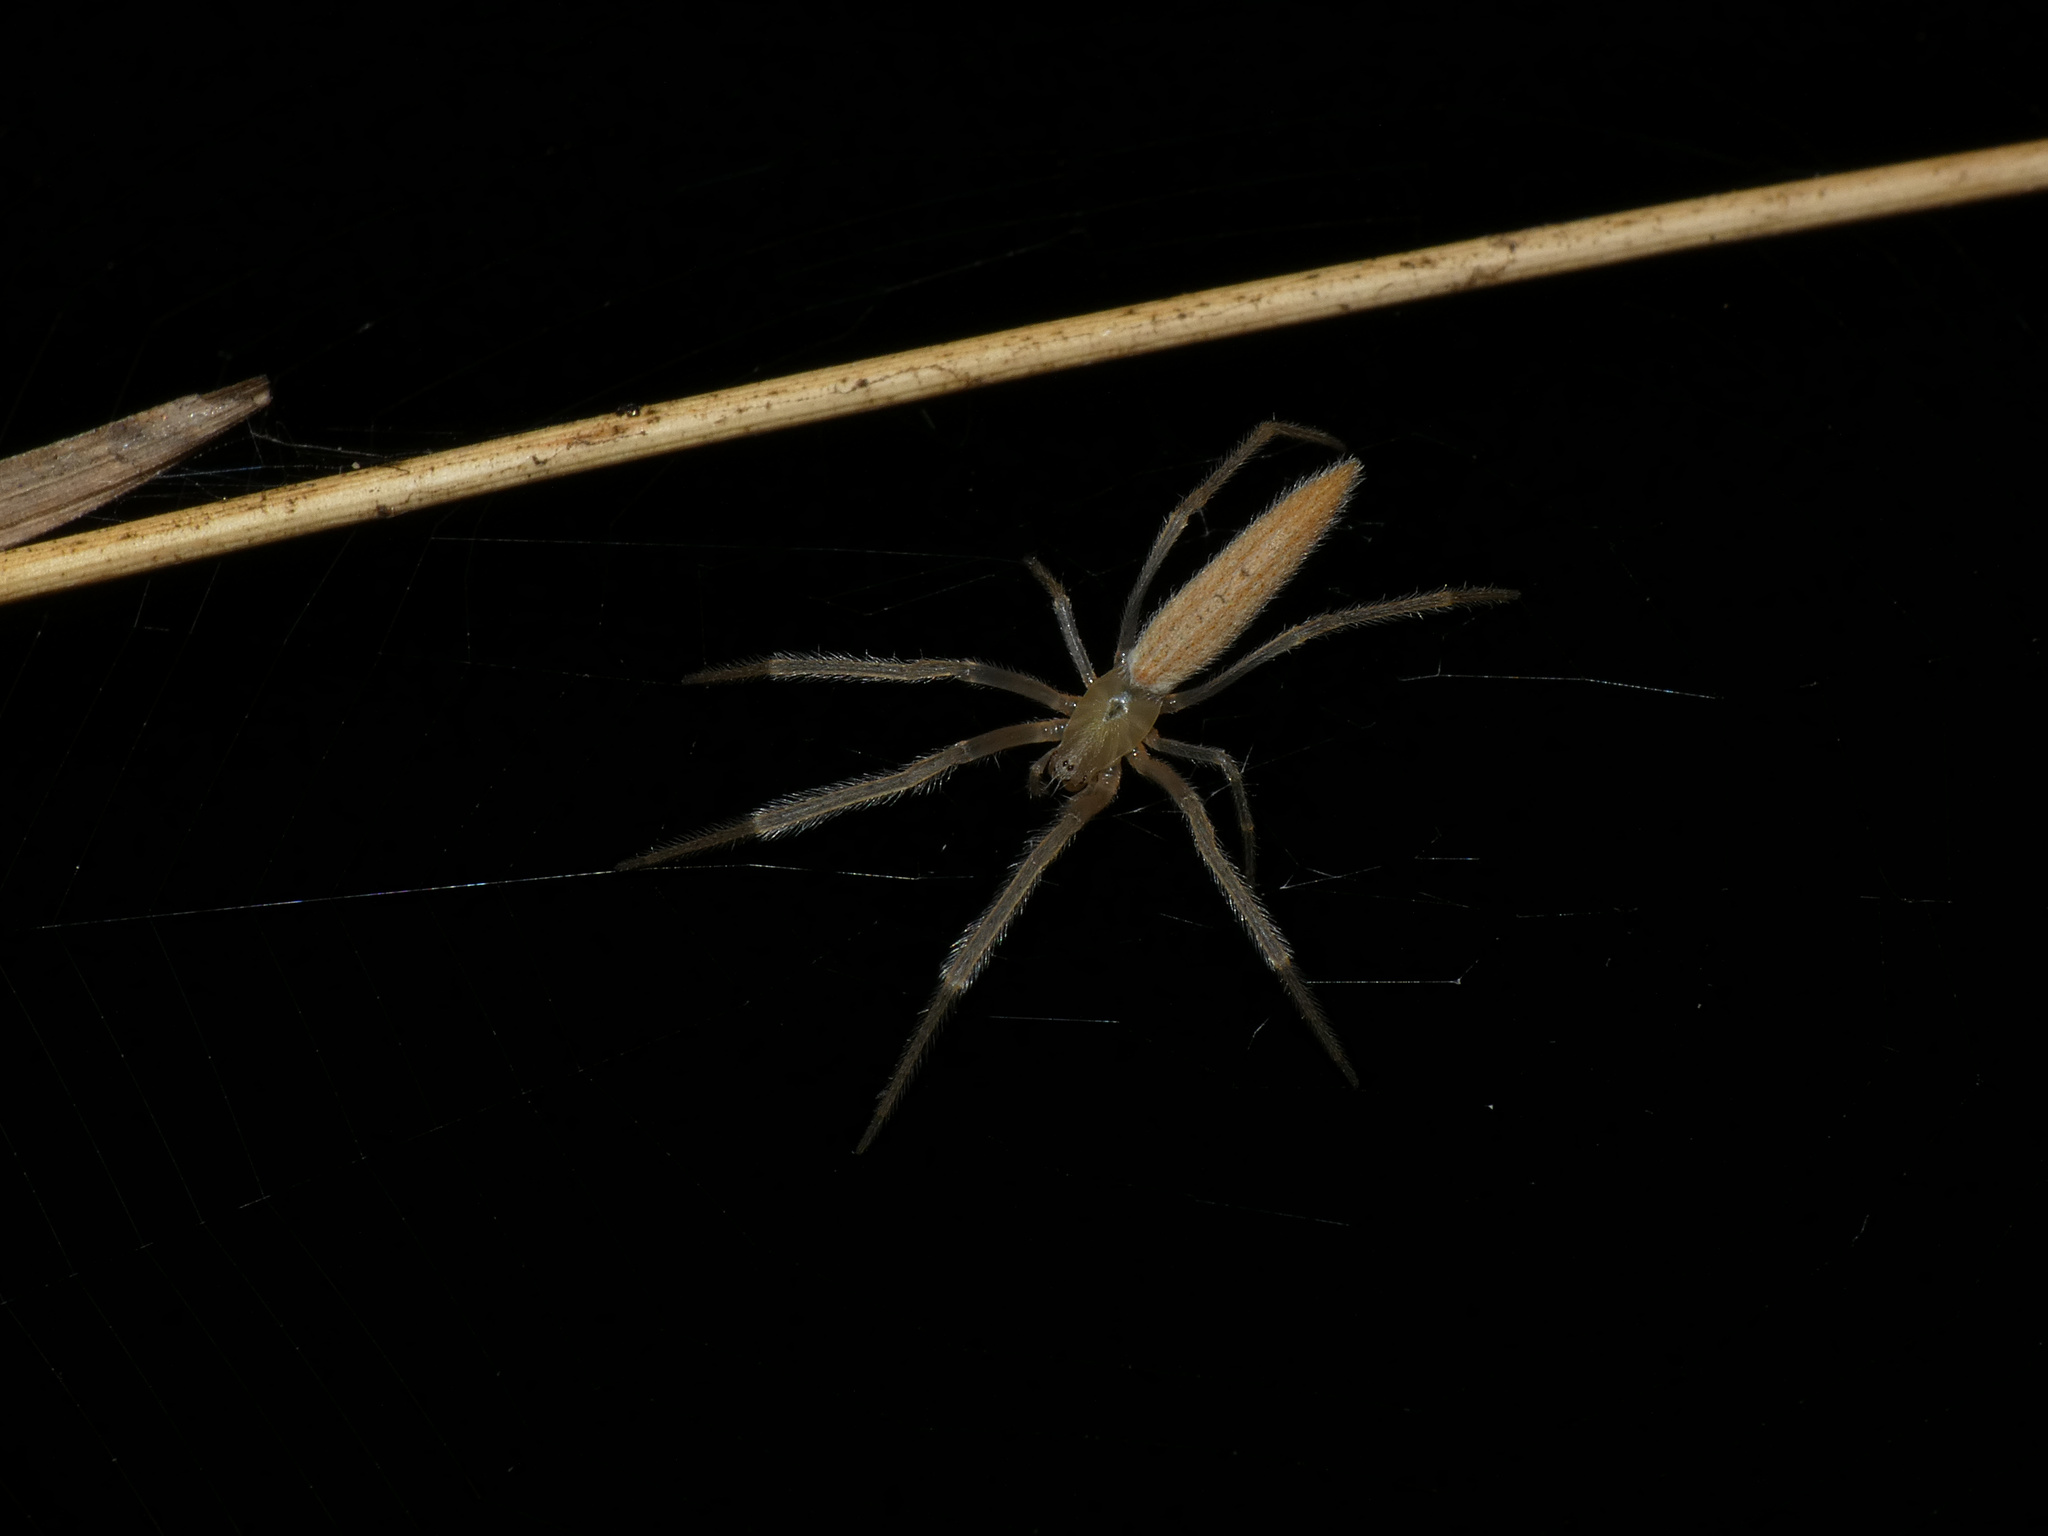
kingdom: Animalia
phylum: Arthropoda
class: Arachnida
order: Araneae
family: Araneidae
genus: Mahembea
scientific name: Mahembea hewitti
